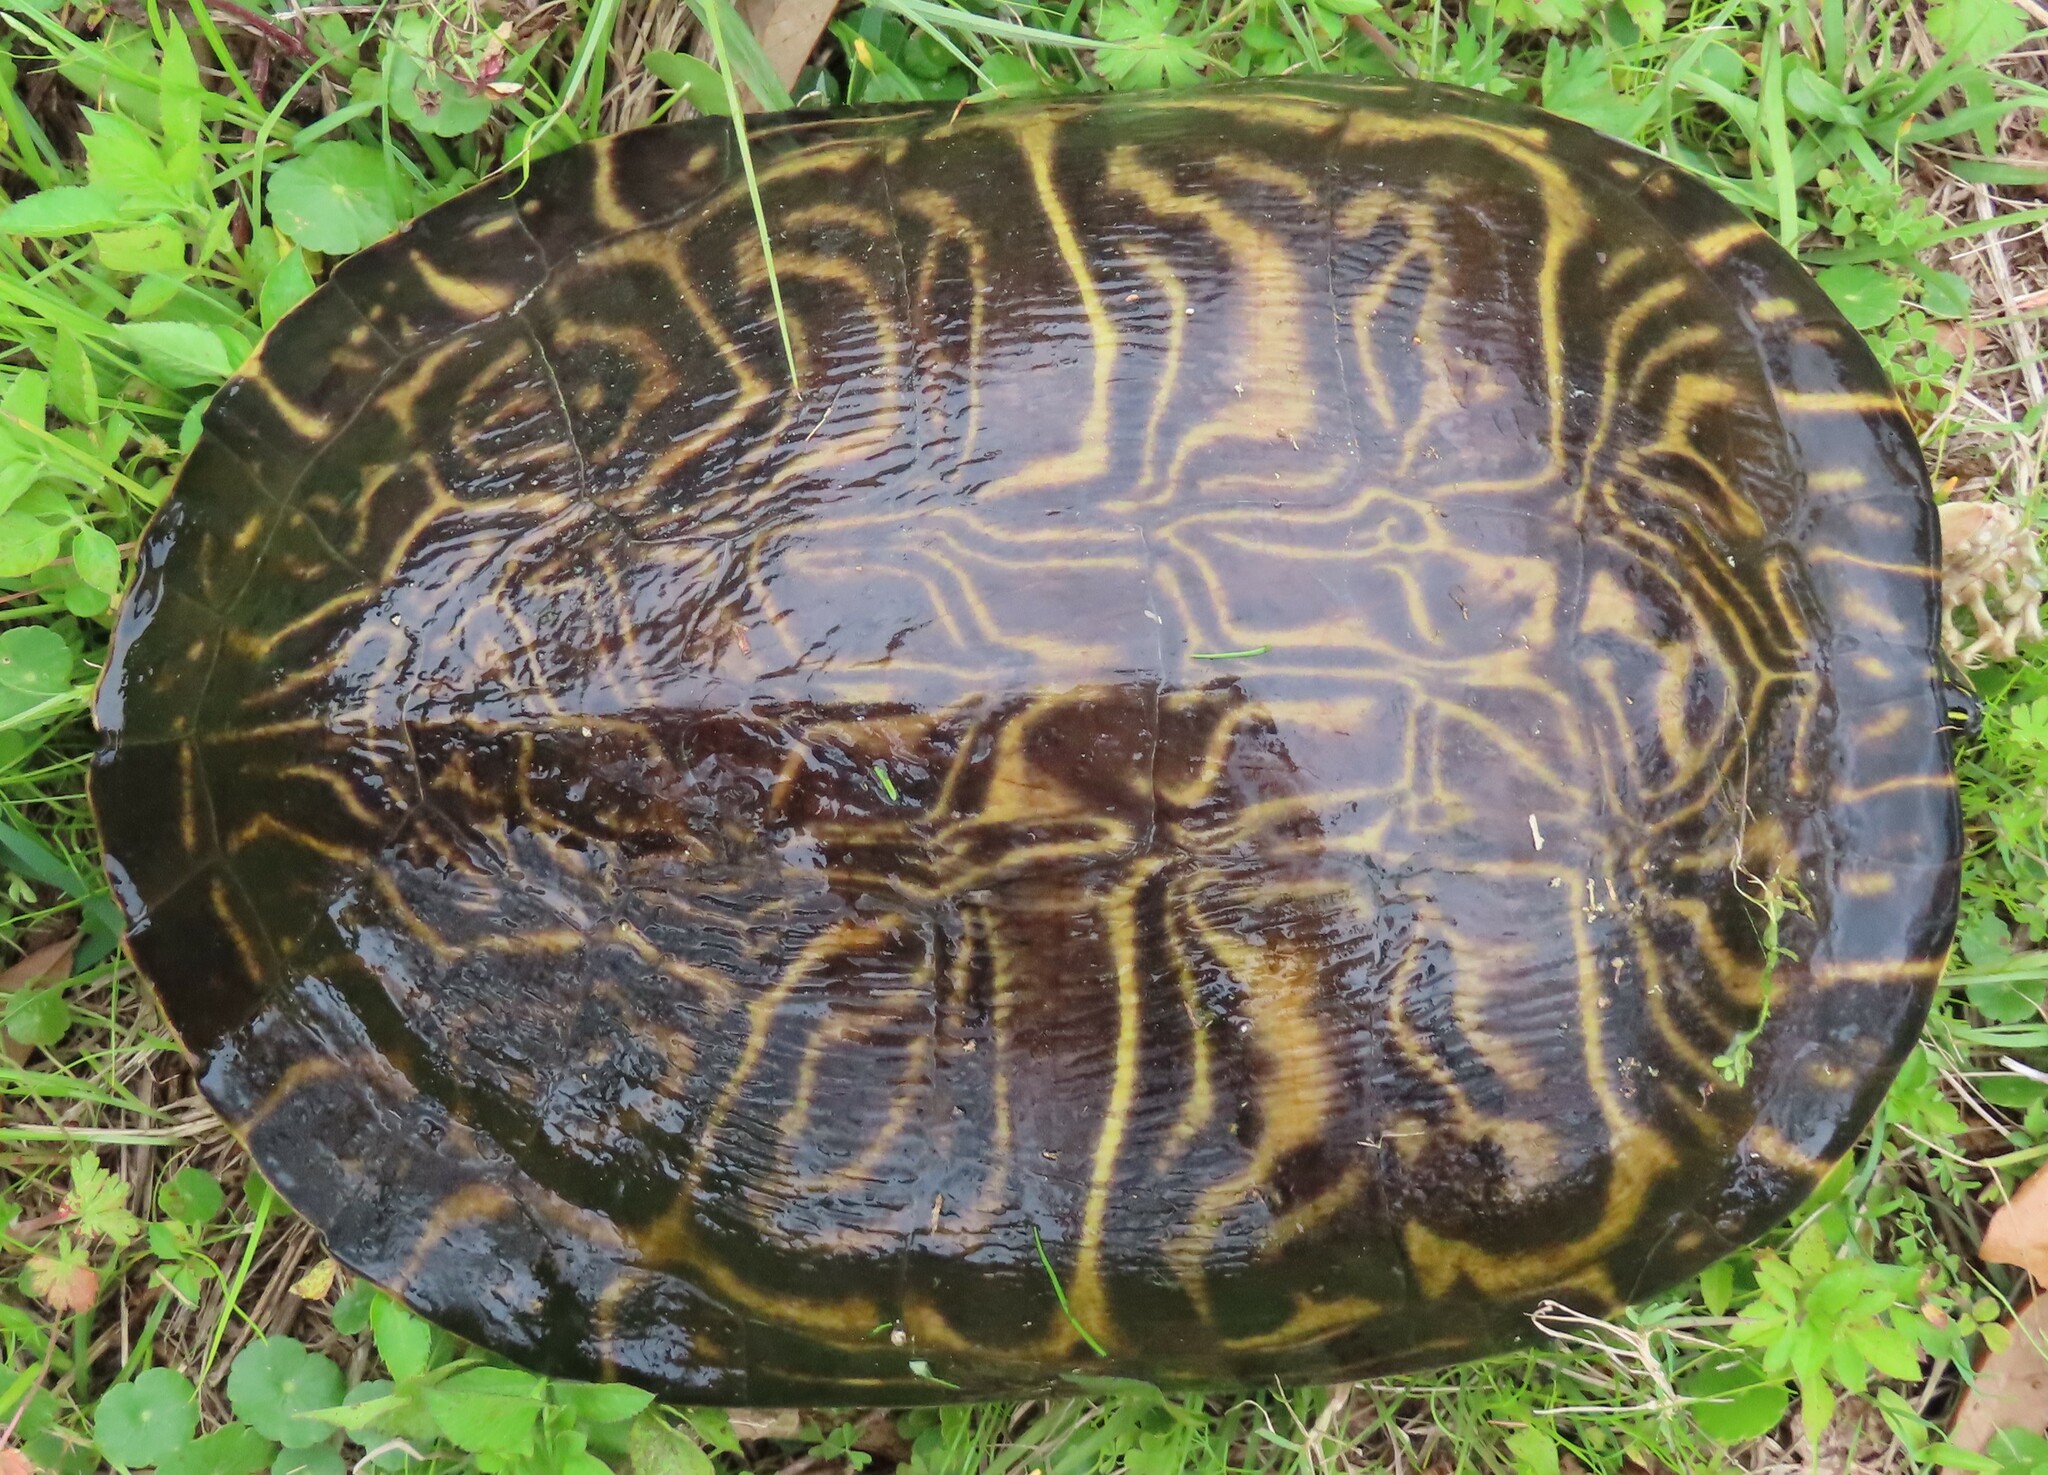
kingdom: Animalia
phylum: Chordata
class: Testudines
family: Emydidae
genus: Pseudemys
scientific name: Pseudemys peninsularis
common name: Peninsula cooter
